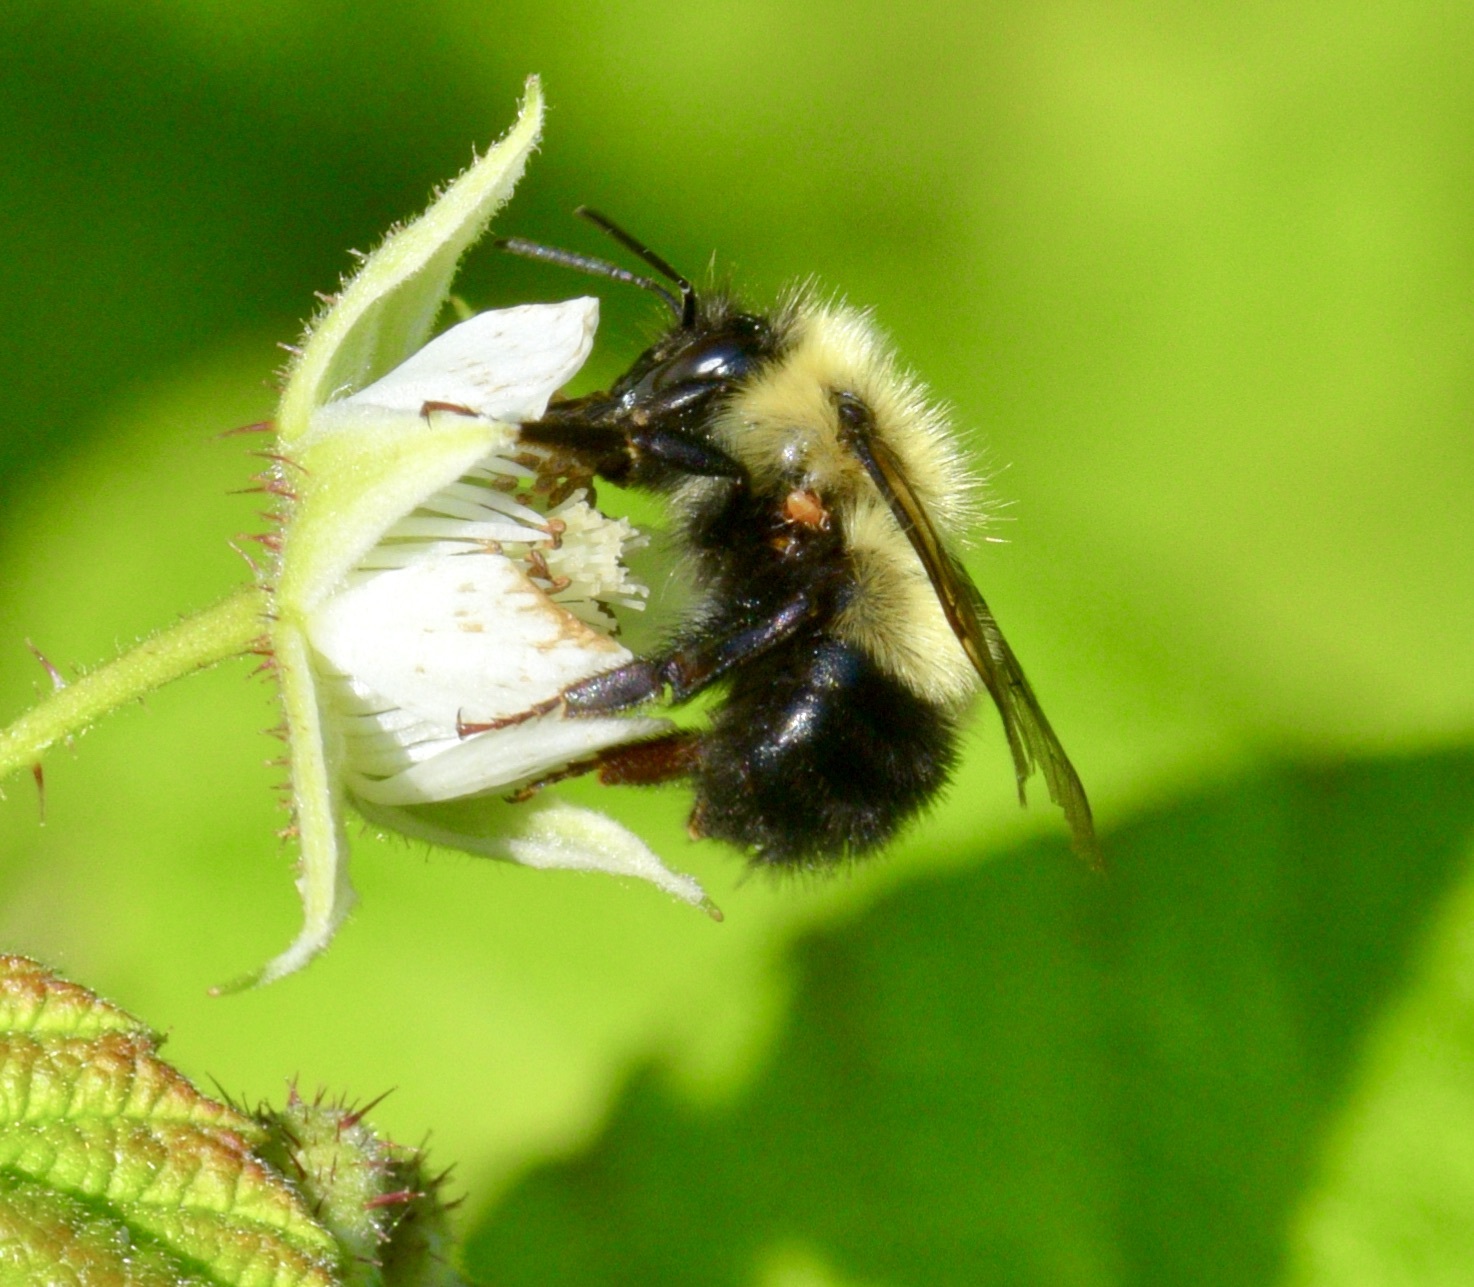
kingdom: Animalia
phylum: Arthropoda
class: Insecta
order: Hymenoptera
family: Apidae
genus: Pyrobombus
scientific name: Pyrobombus
